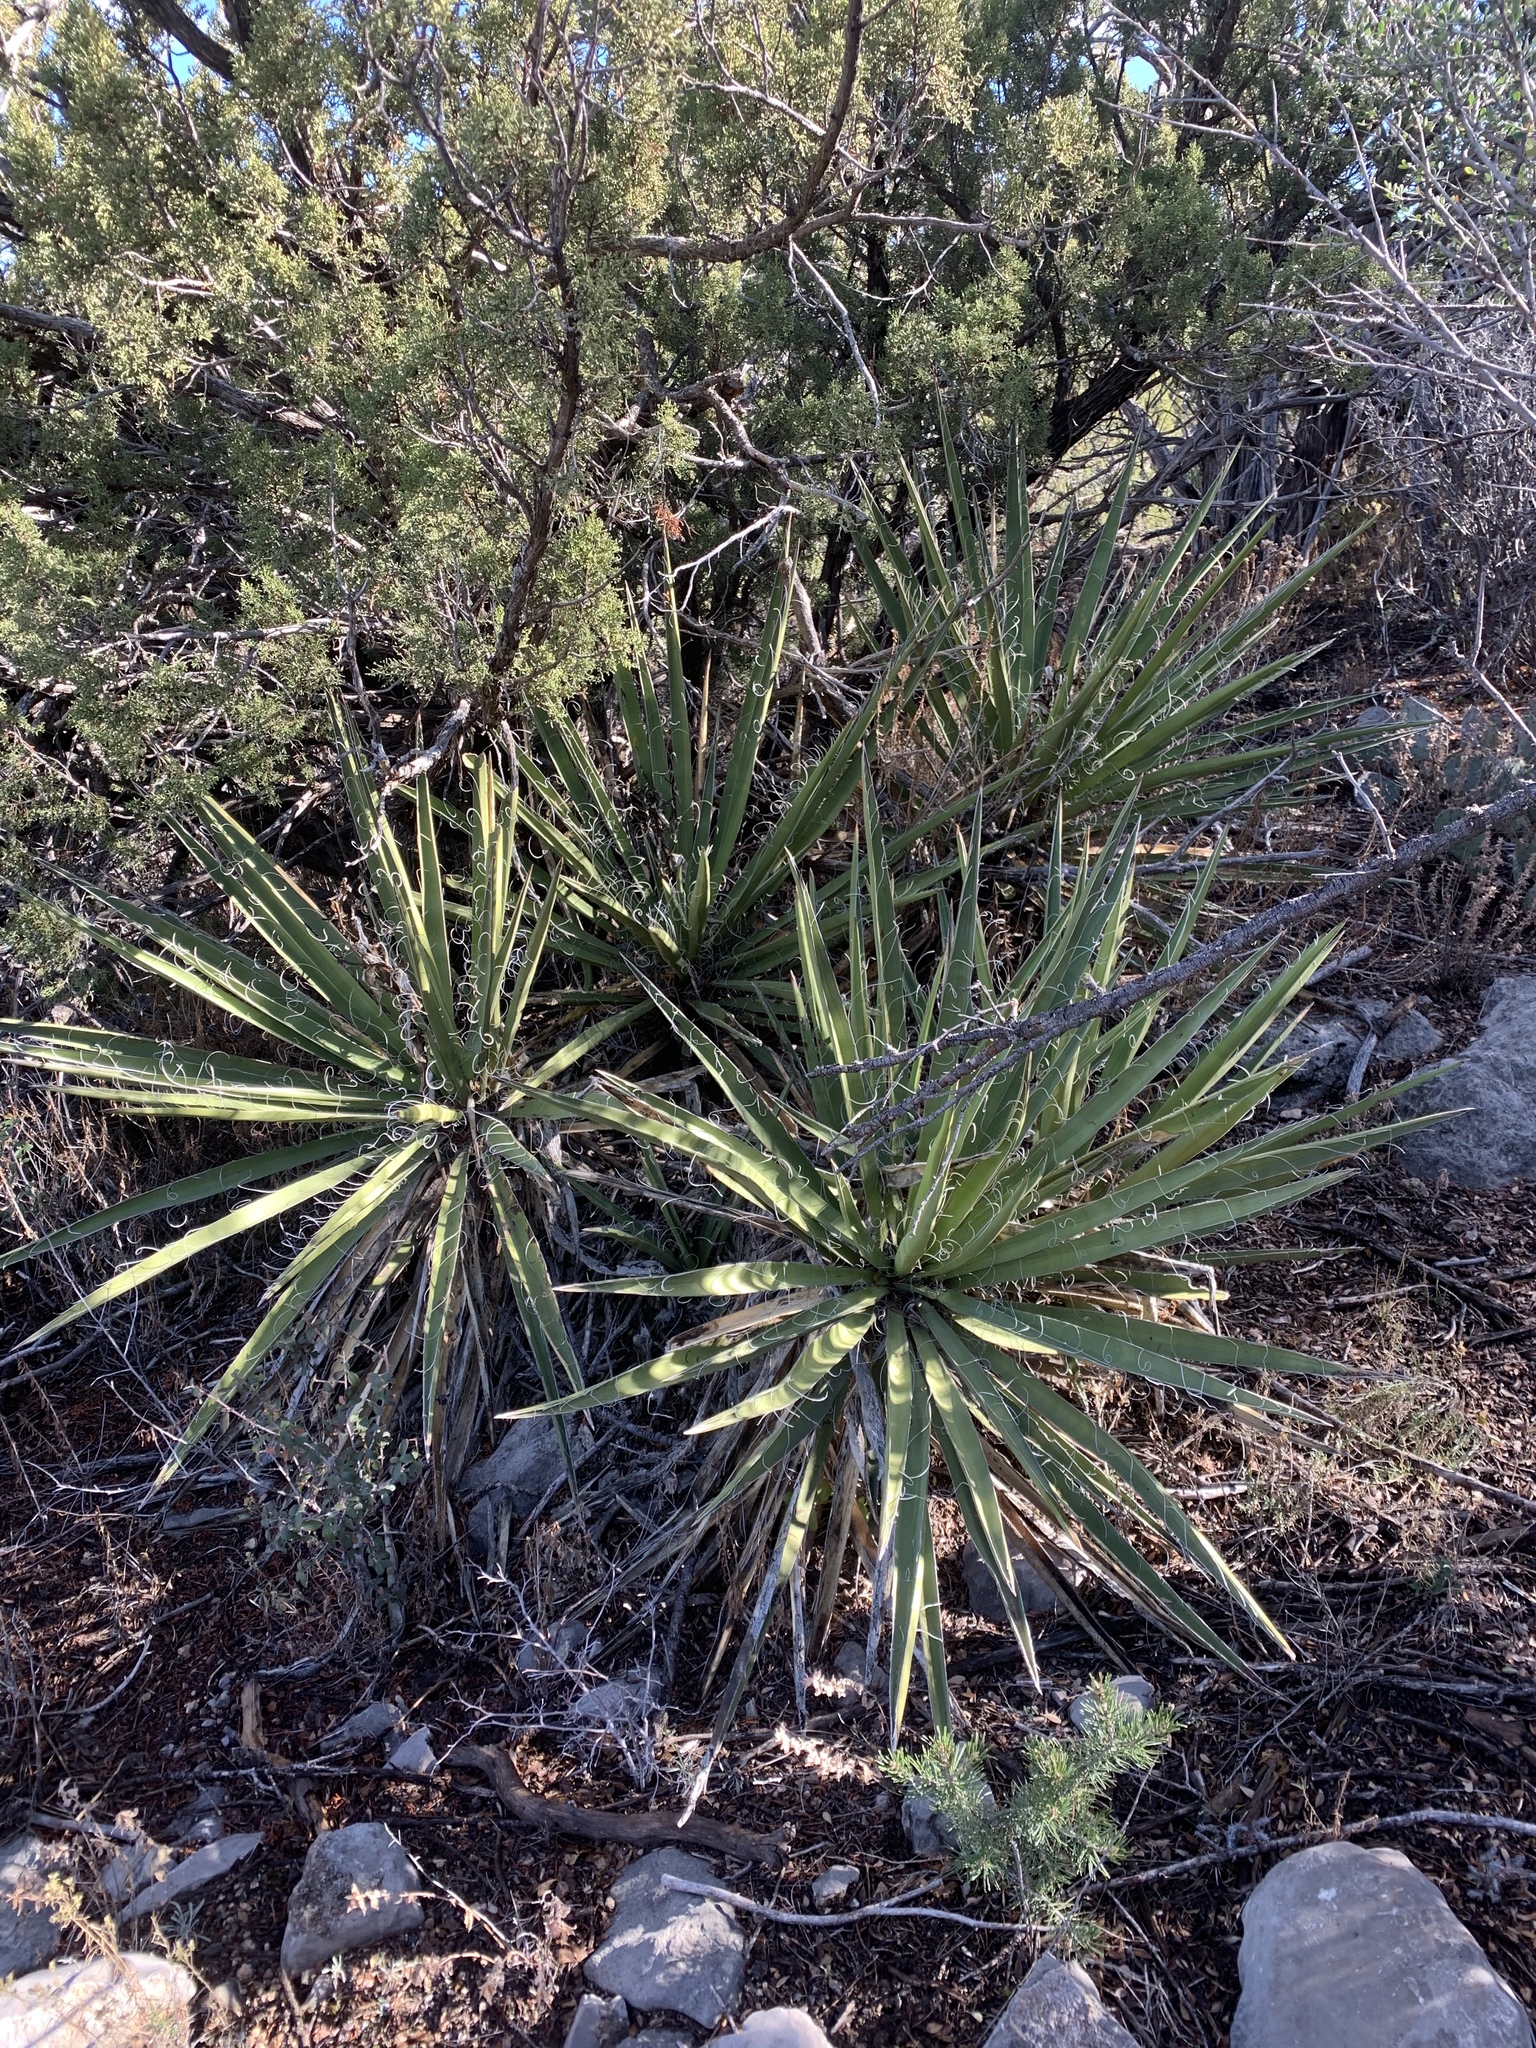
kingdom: Plantae
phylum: Tracheophyta
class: Liliopsida
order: Asparagales
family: Asparagaceae
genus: Yucca
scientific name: Yucca baccata
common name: Banana yucca
